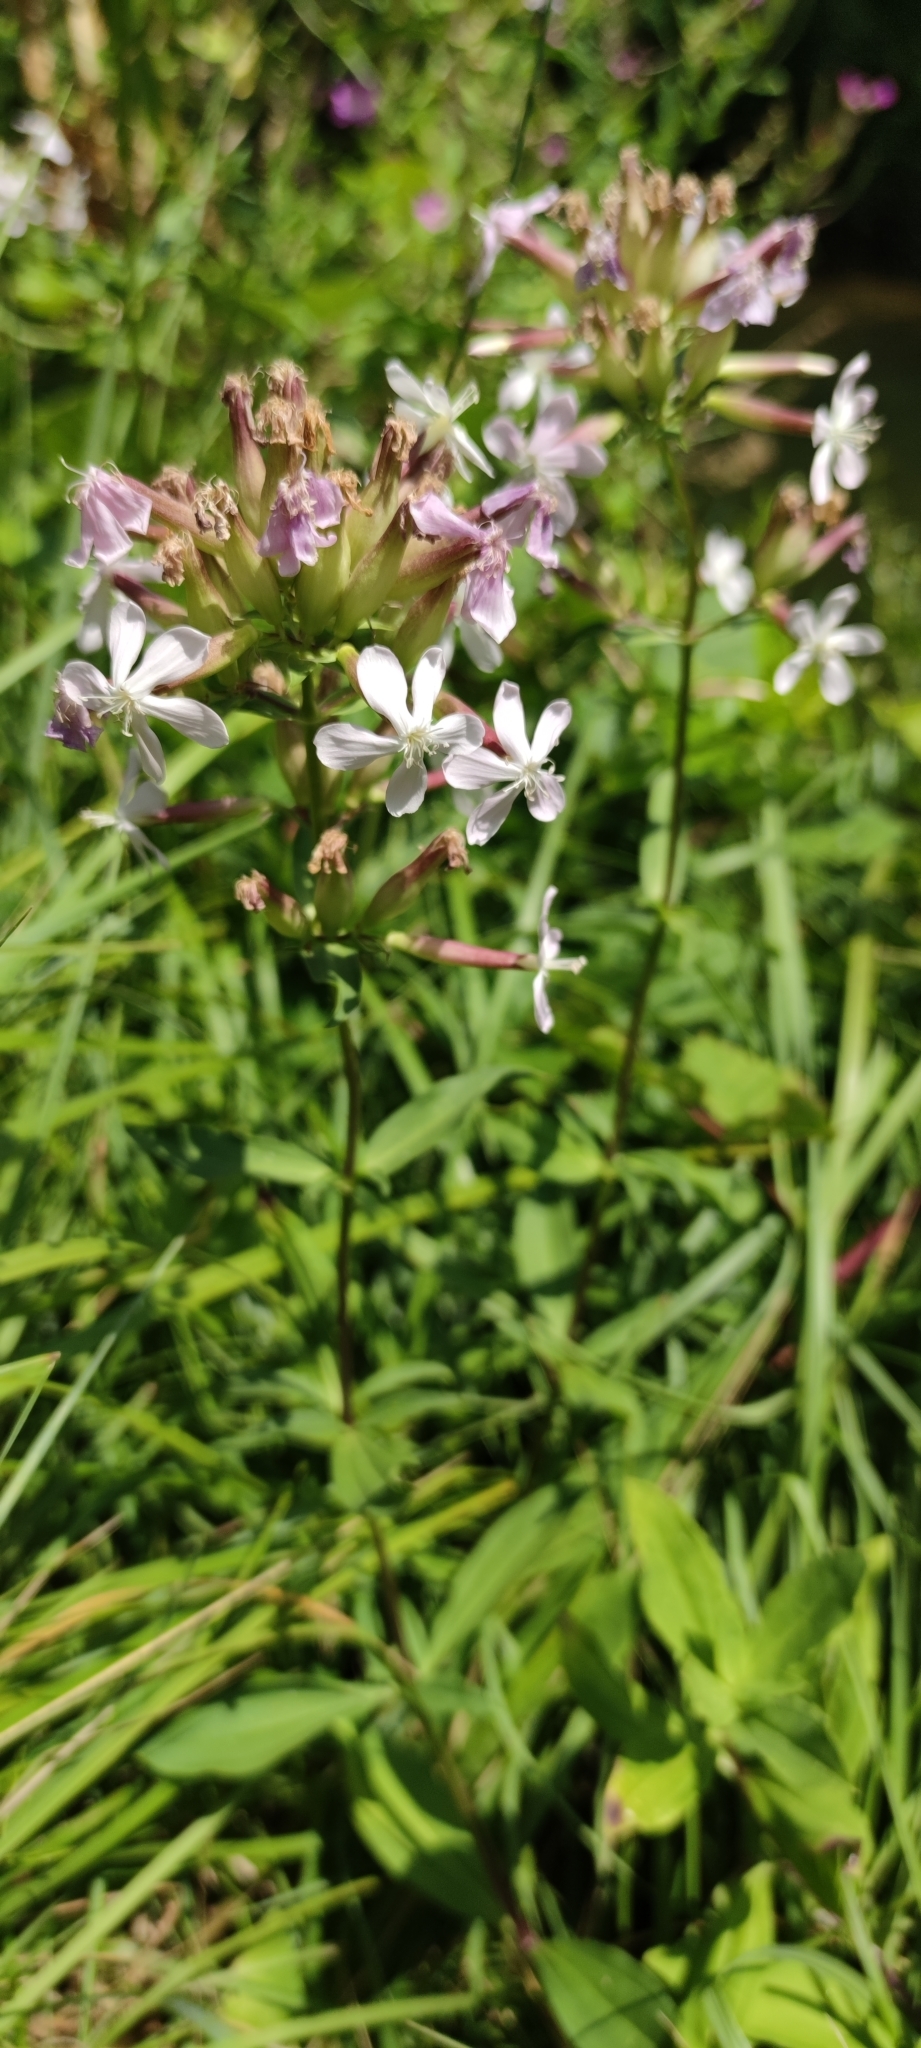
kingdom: Plantae
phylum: Tracheophyta
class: Magnoliopsida
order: Caryophyllales
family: Caryophyllaceae
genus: Saponaria
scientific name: Saponaria officinalis
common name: Soapwort
